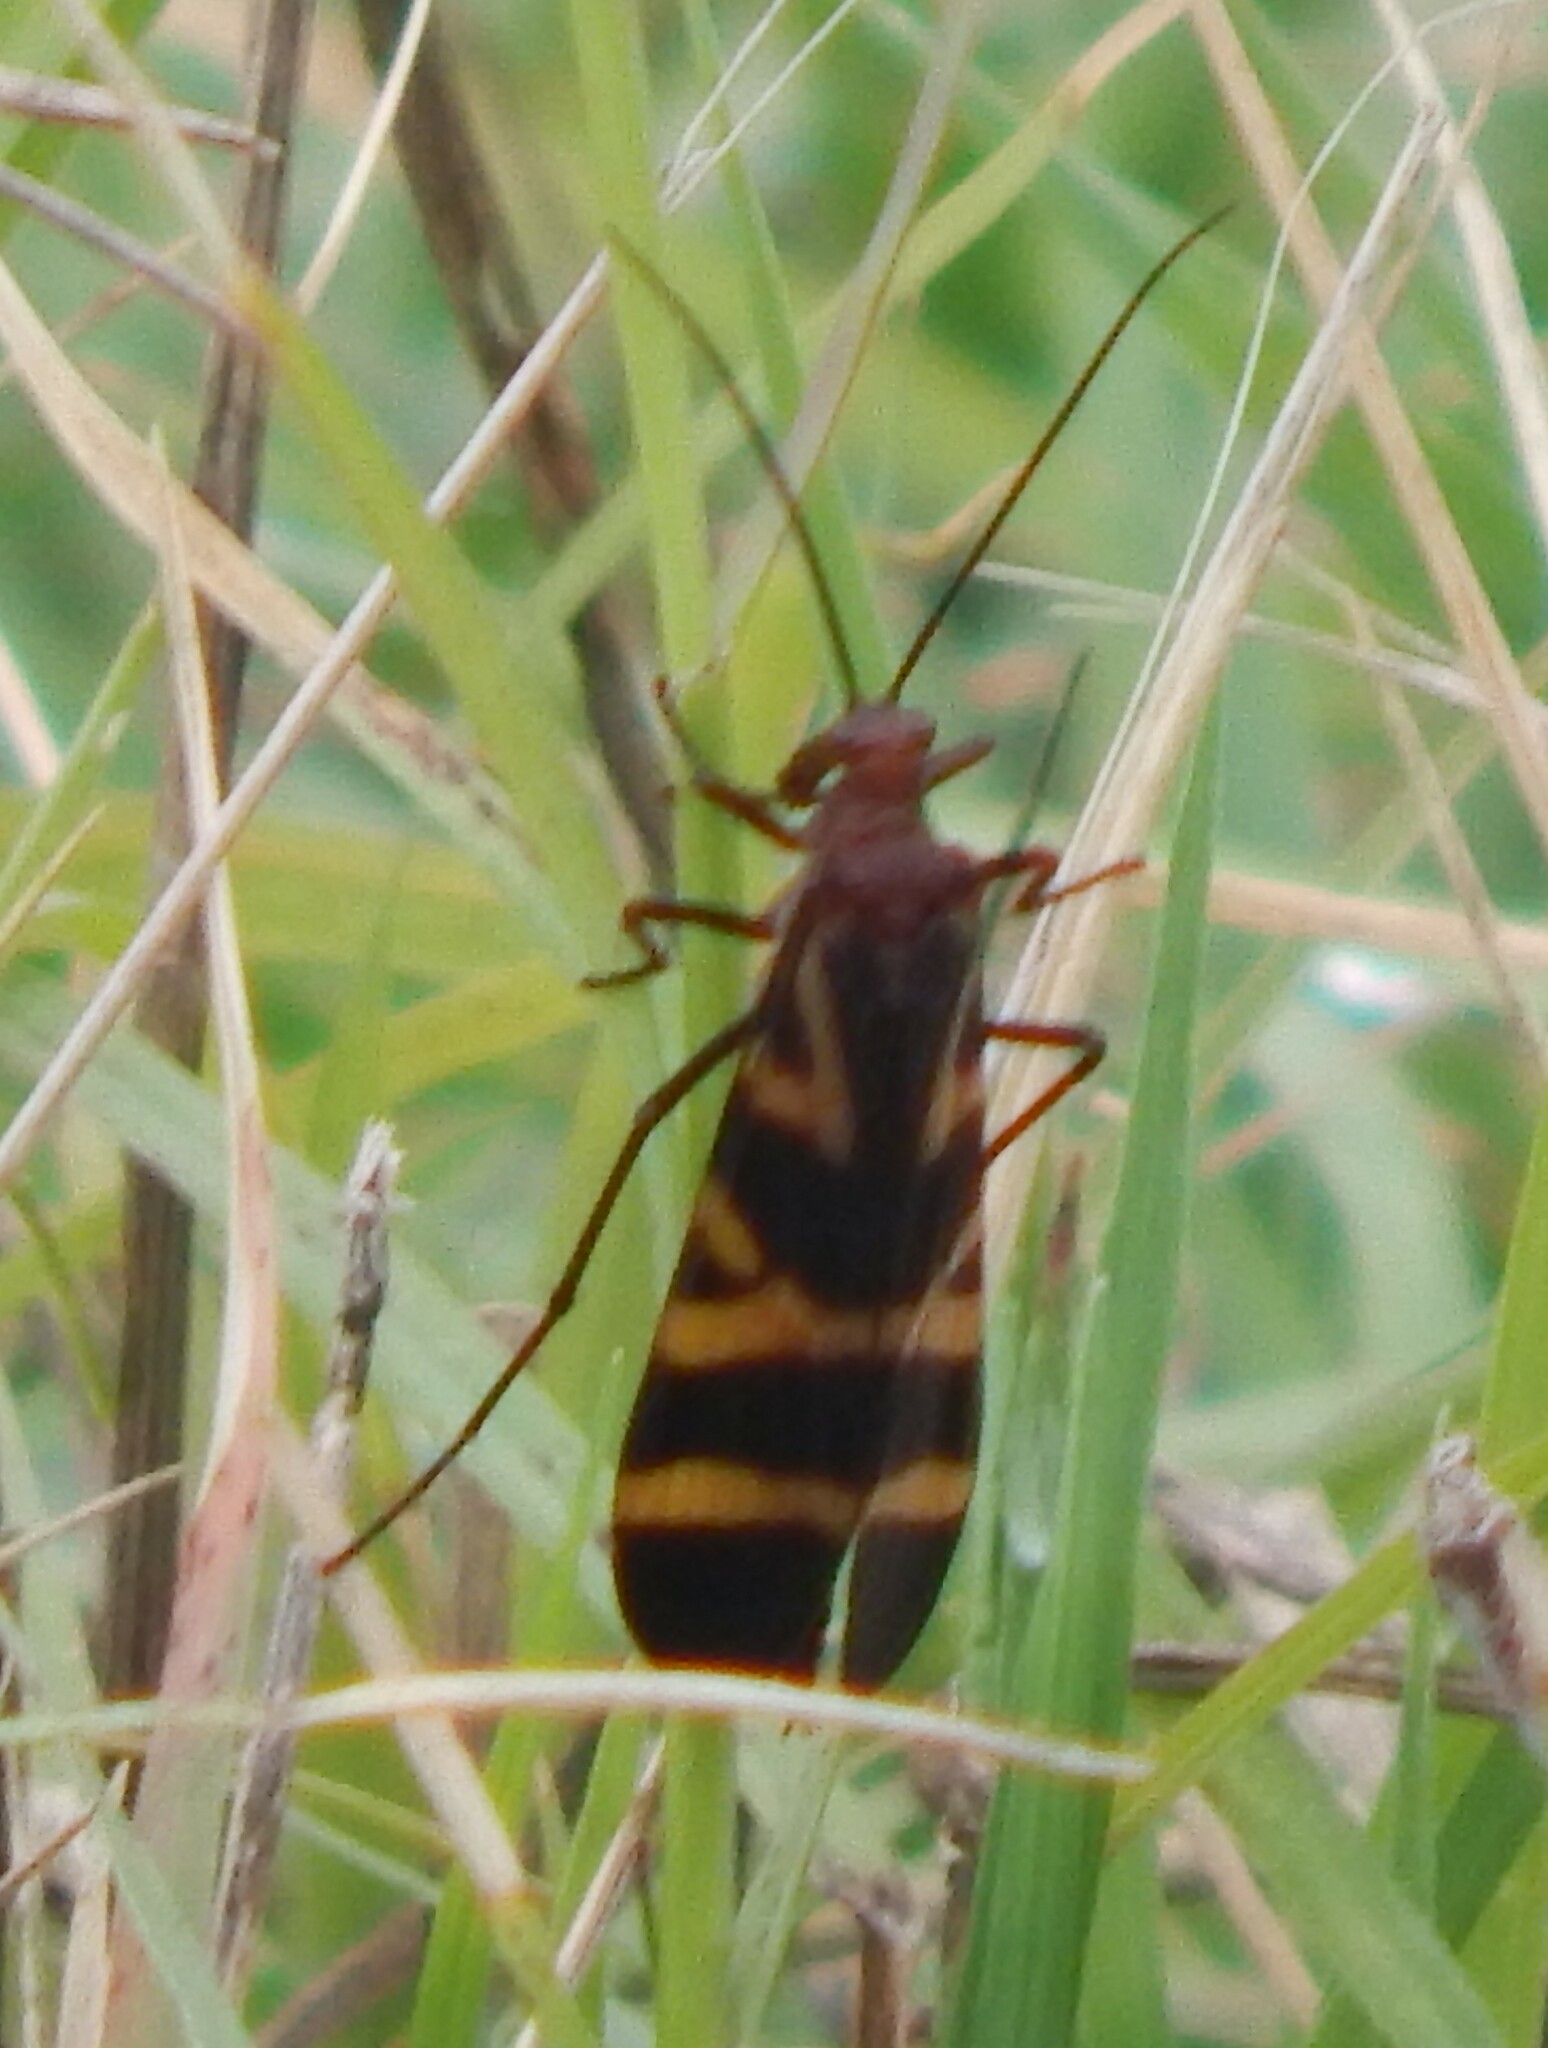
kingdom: Animalia
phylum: Arthropoda
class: Insecta
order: Mecoptera
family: Panorpidae
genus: Panorpa
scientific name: Panorpa nuptialis
